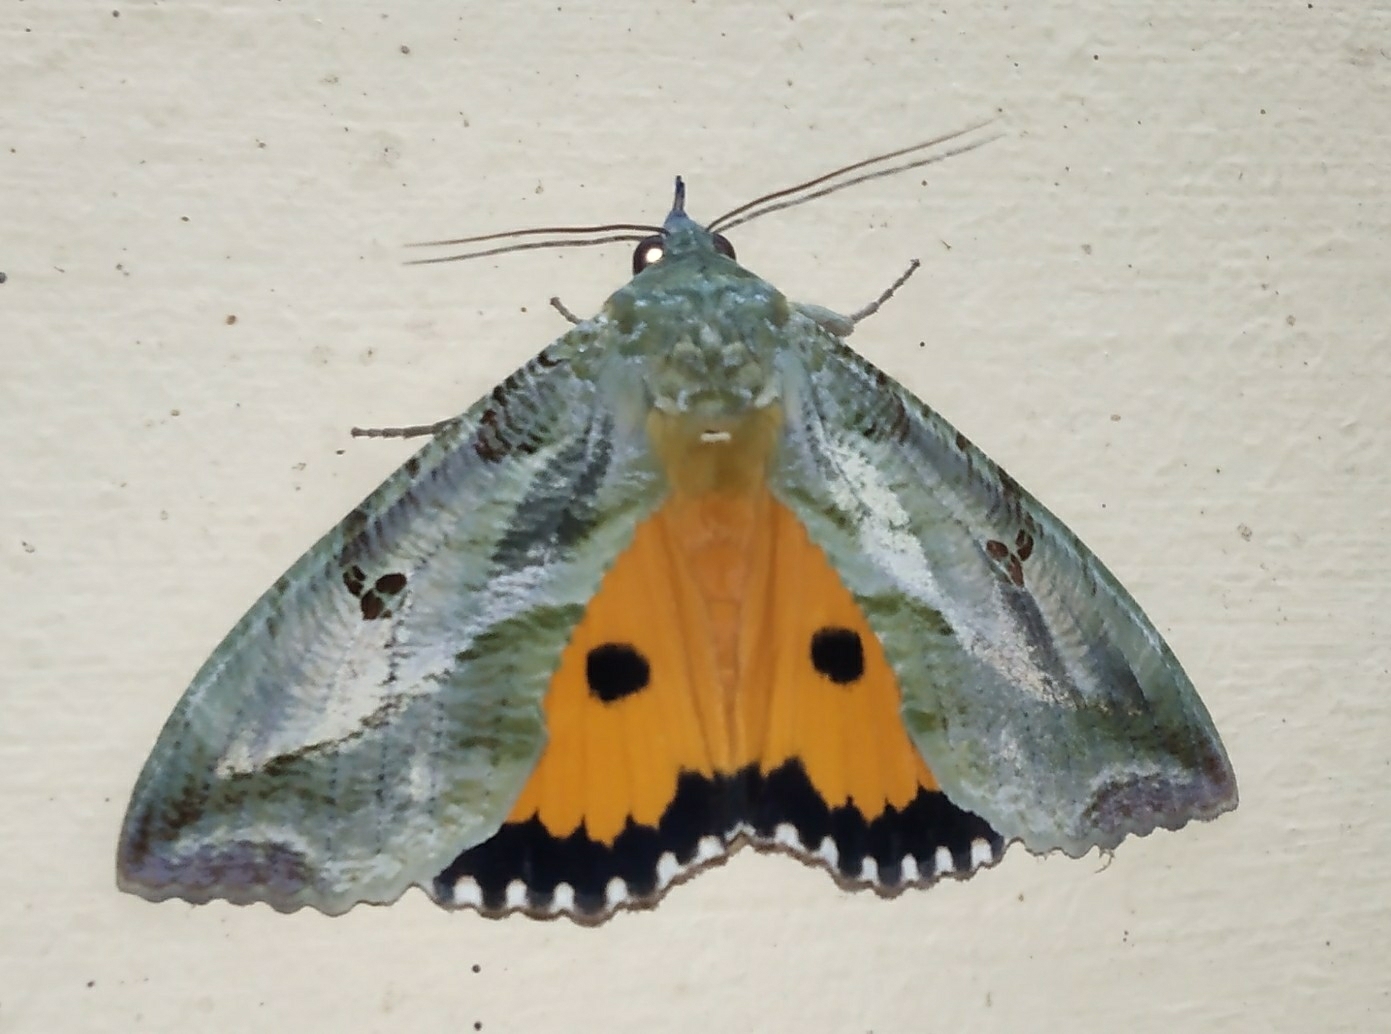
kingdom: Animalia
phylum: Arthropoda
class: Insecta
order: Lepidoptera
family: Erebidae
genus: Eudocima
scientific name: Eudocima materna
